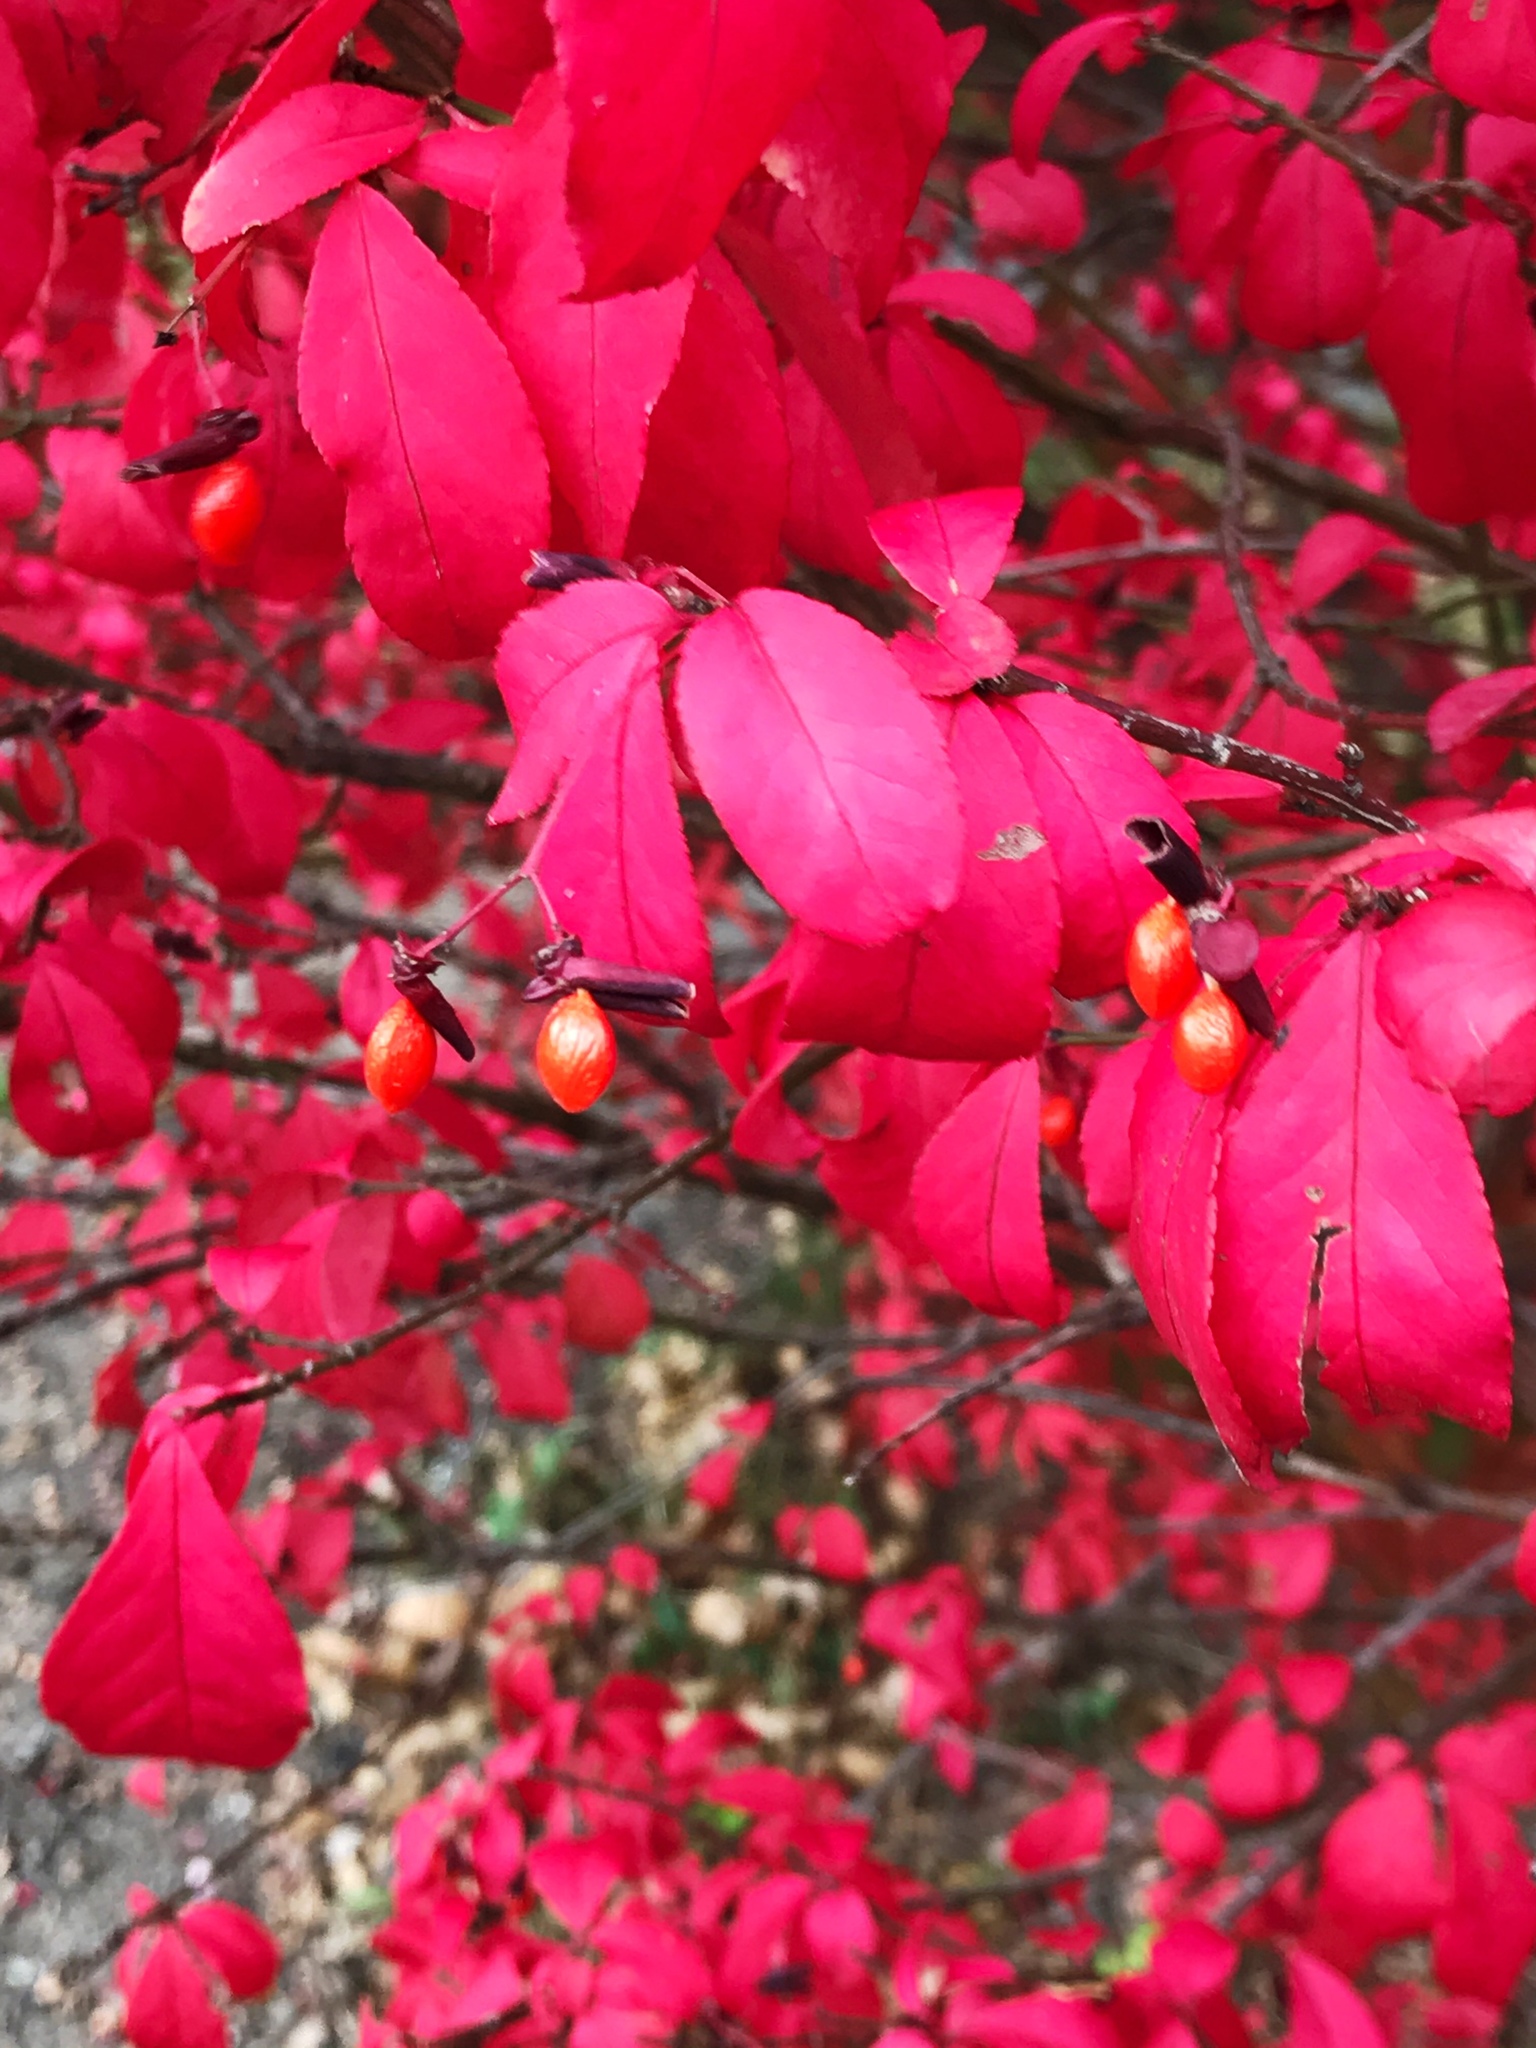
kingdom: Plantae
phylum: Tracheophyta
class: Magnoliopsida
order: Celastrales
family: Celastraceae
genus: Euonymus
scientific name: Euonymus alatus
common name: Winged euonymus
